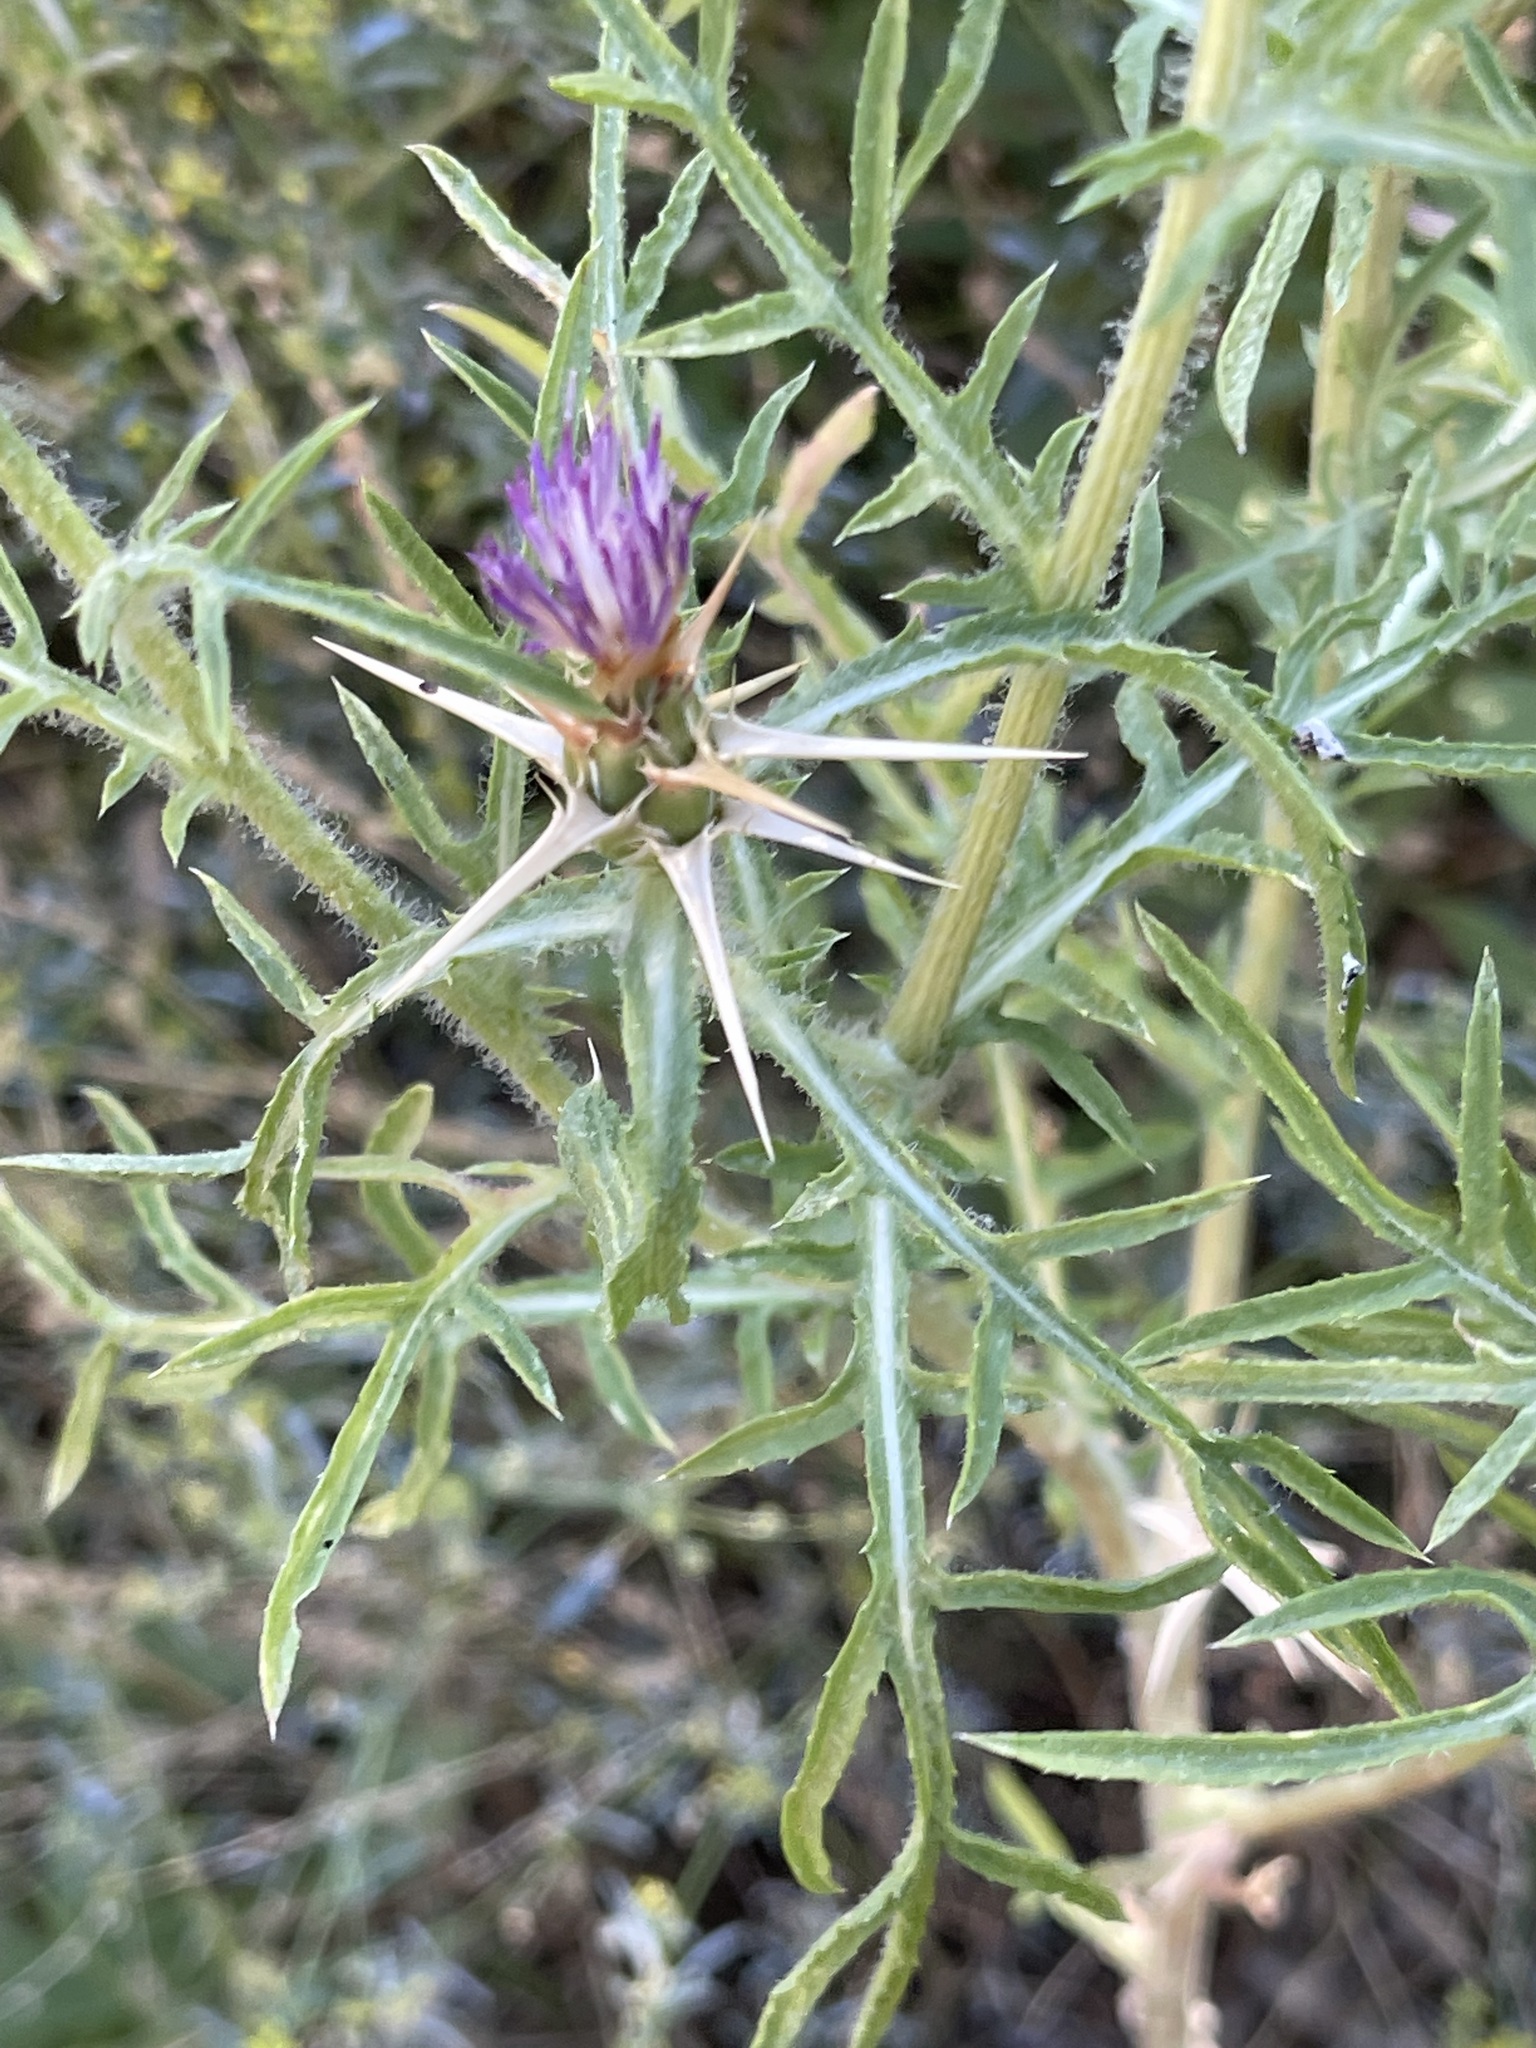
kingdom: Plantae
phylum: Tracheophyta
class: Magnoliopsida
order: Asterales
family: Asteraceae
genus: Centaurea
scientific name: Centaurea calcitrapa
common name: Red star-thistle
